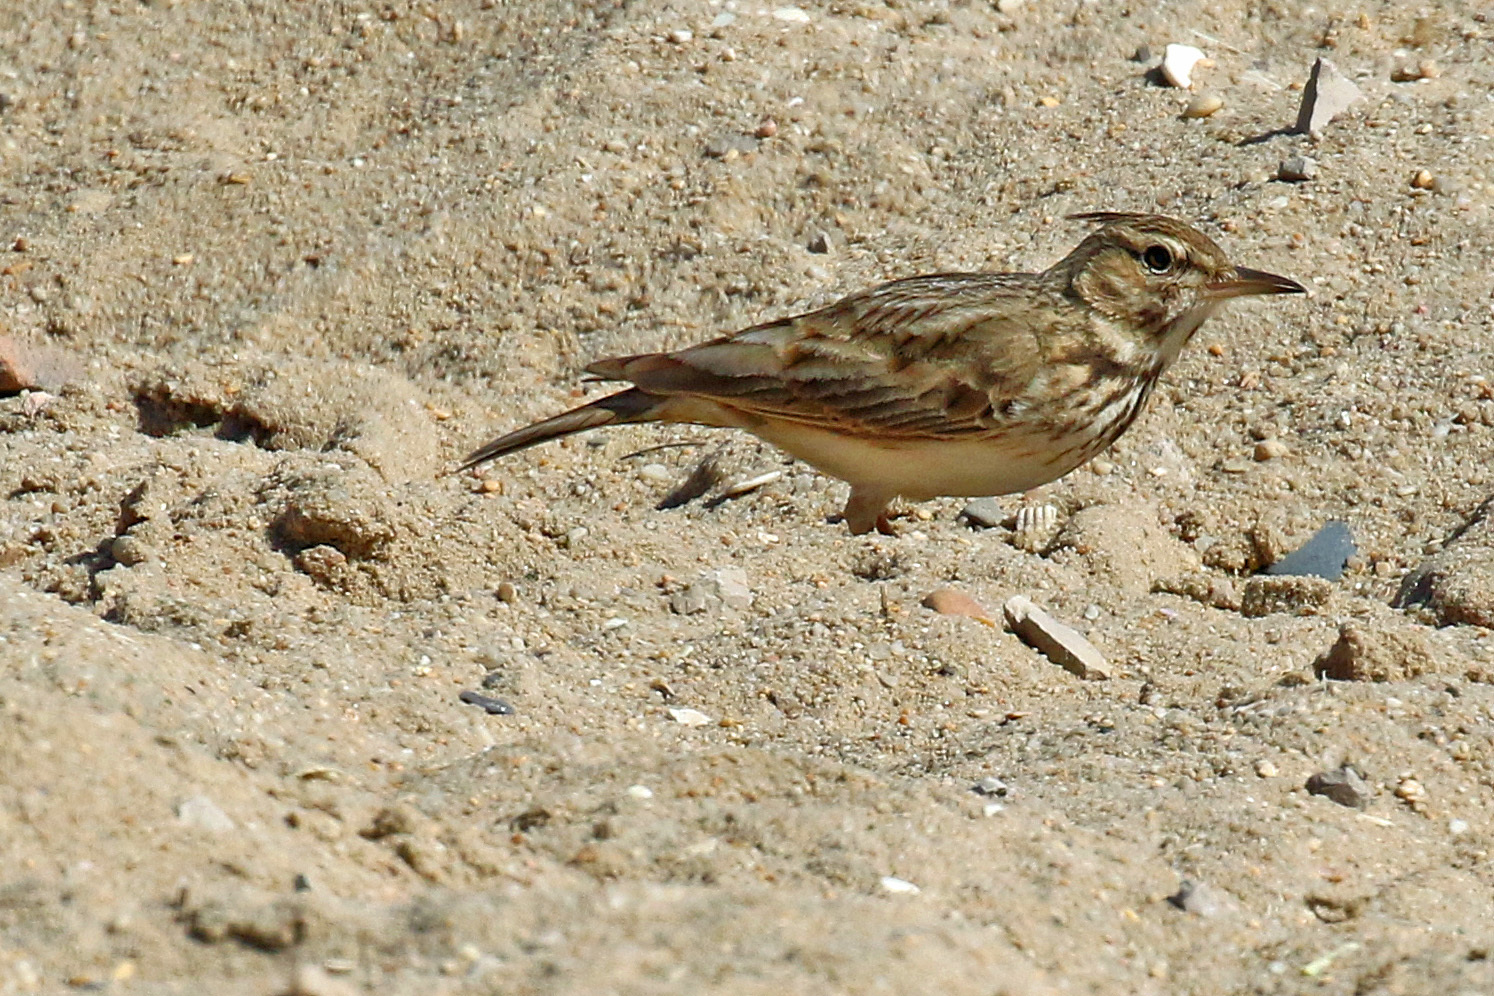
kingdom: Animalia
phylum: Chordata
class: Aves
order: Passeriformes
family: Alaudidae
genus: Galerida
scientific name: Galerida cristata
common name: Crested lark
